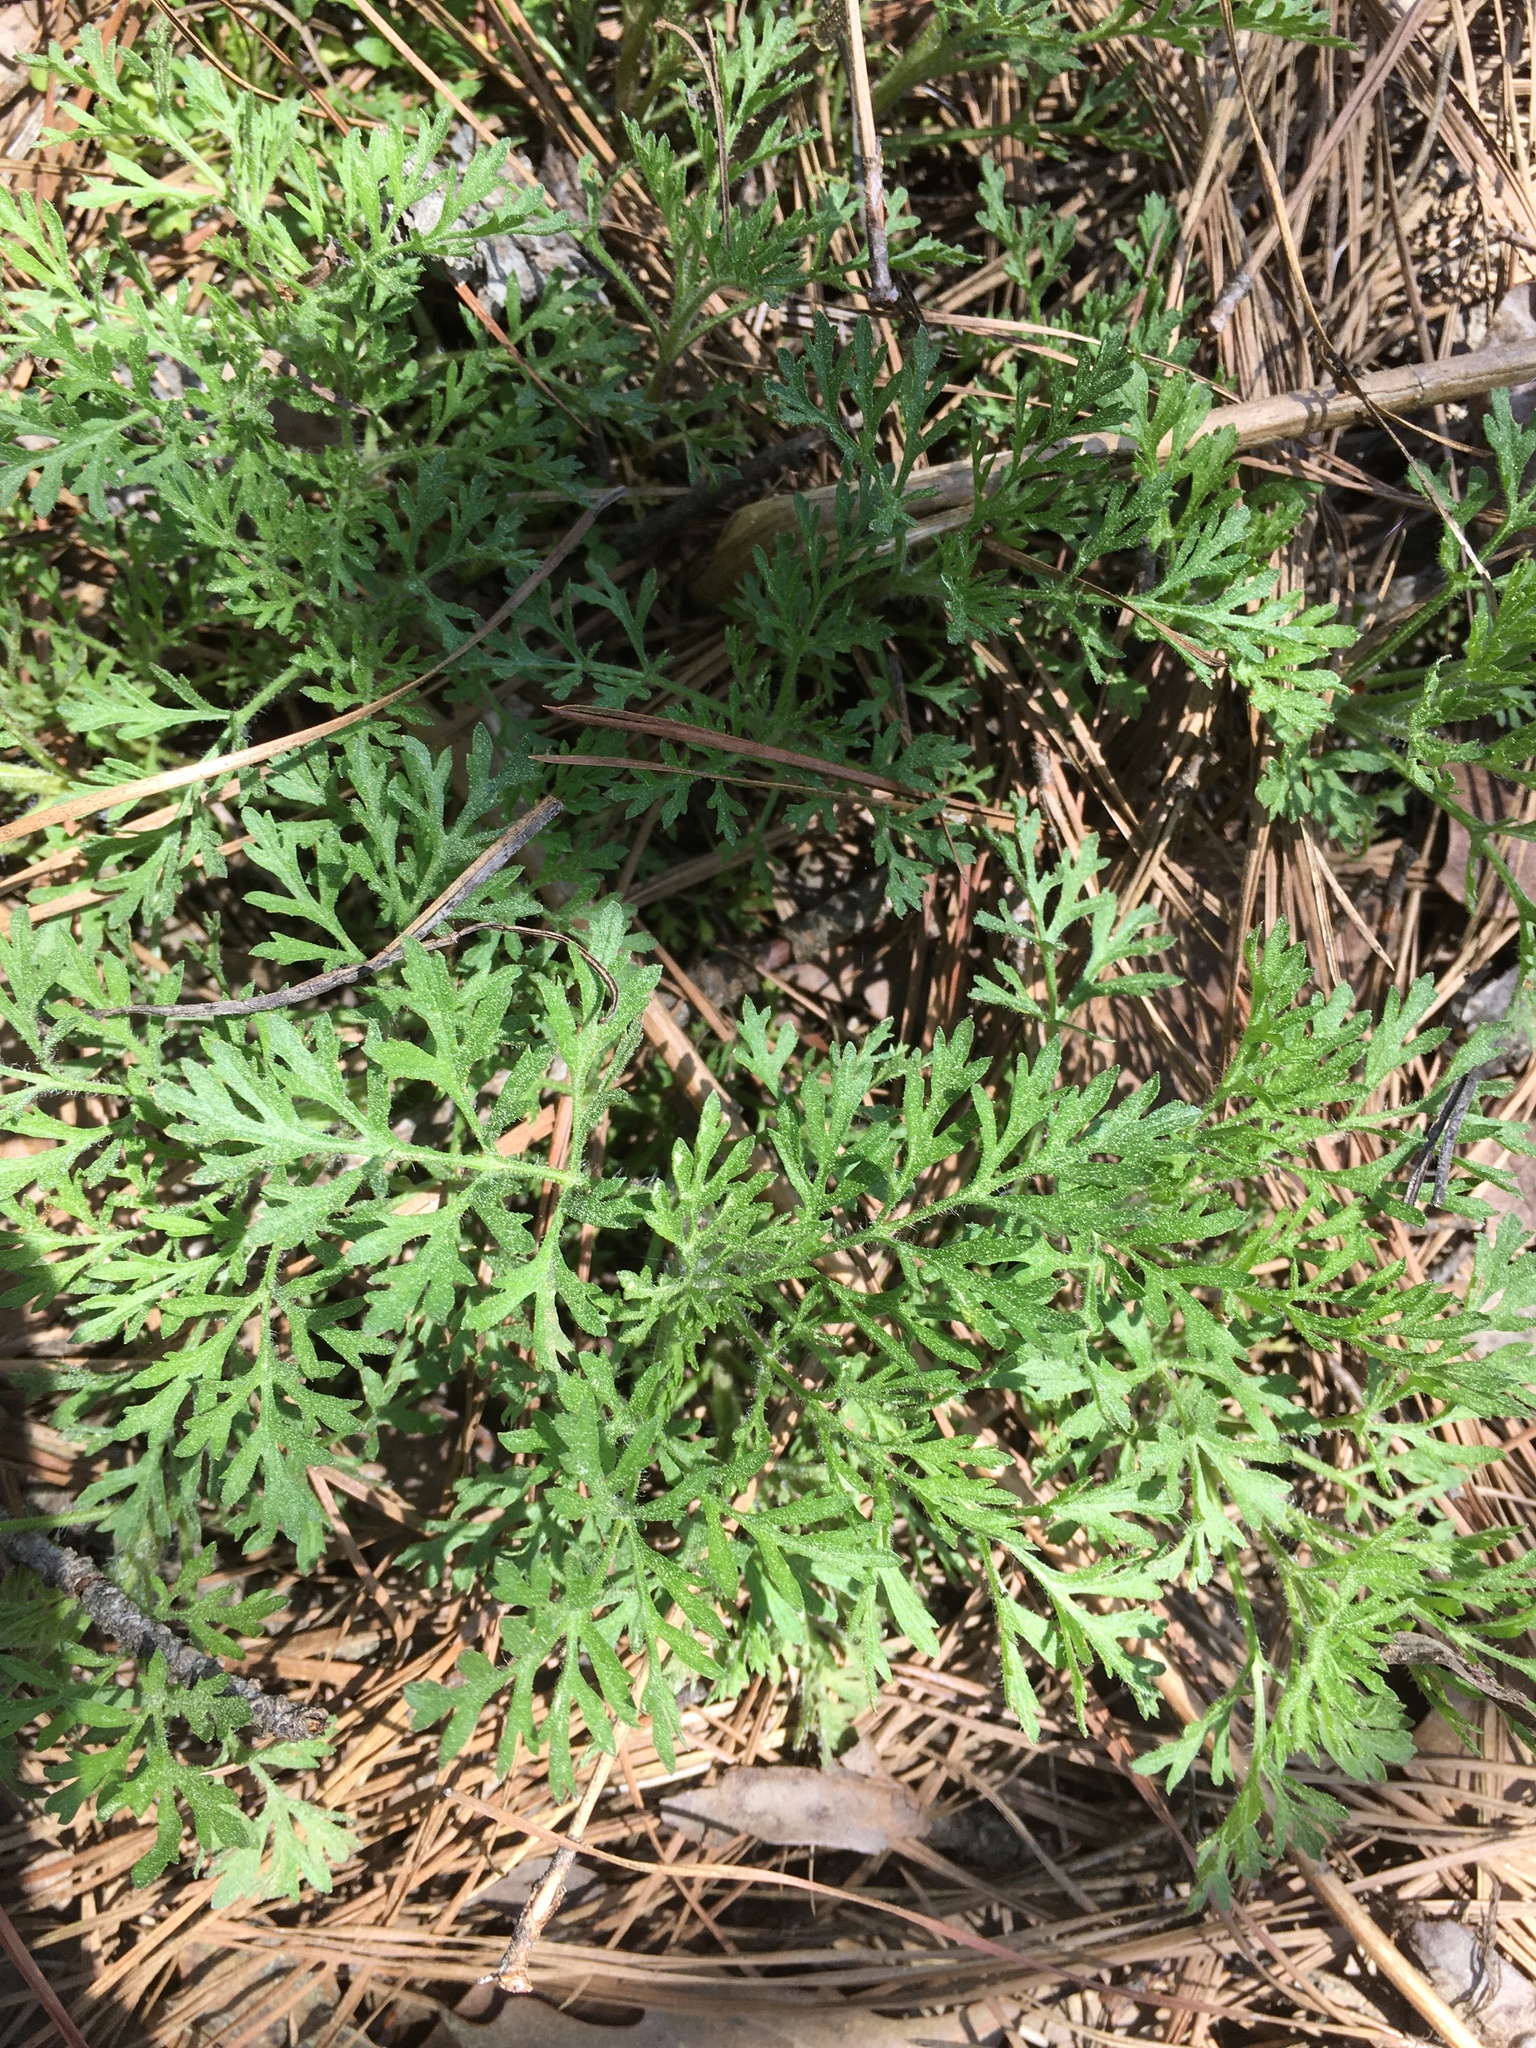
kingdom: Plantae
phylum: Tracheophyta
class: Magnoliopsida
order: Asterales
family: Asteraceae
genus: Eupatorium
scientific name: Eupatorium compositifolium
